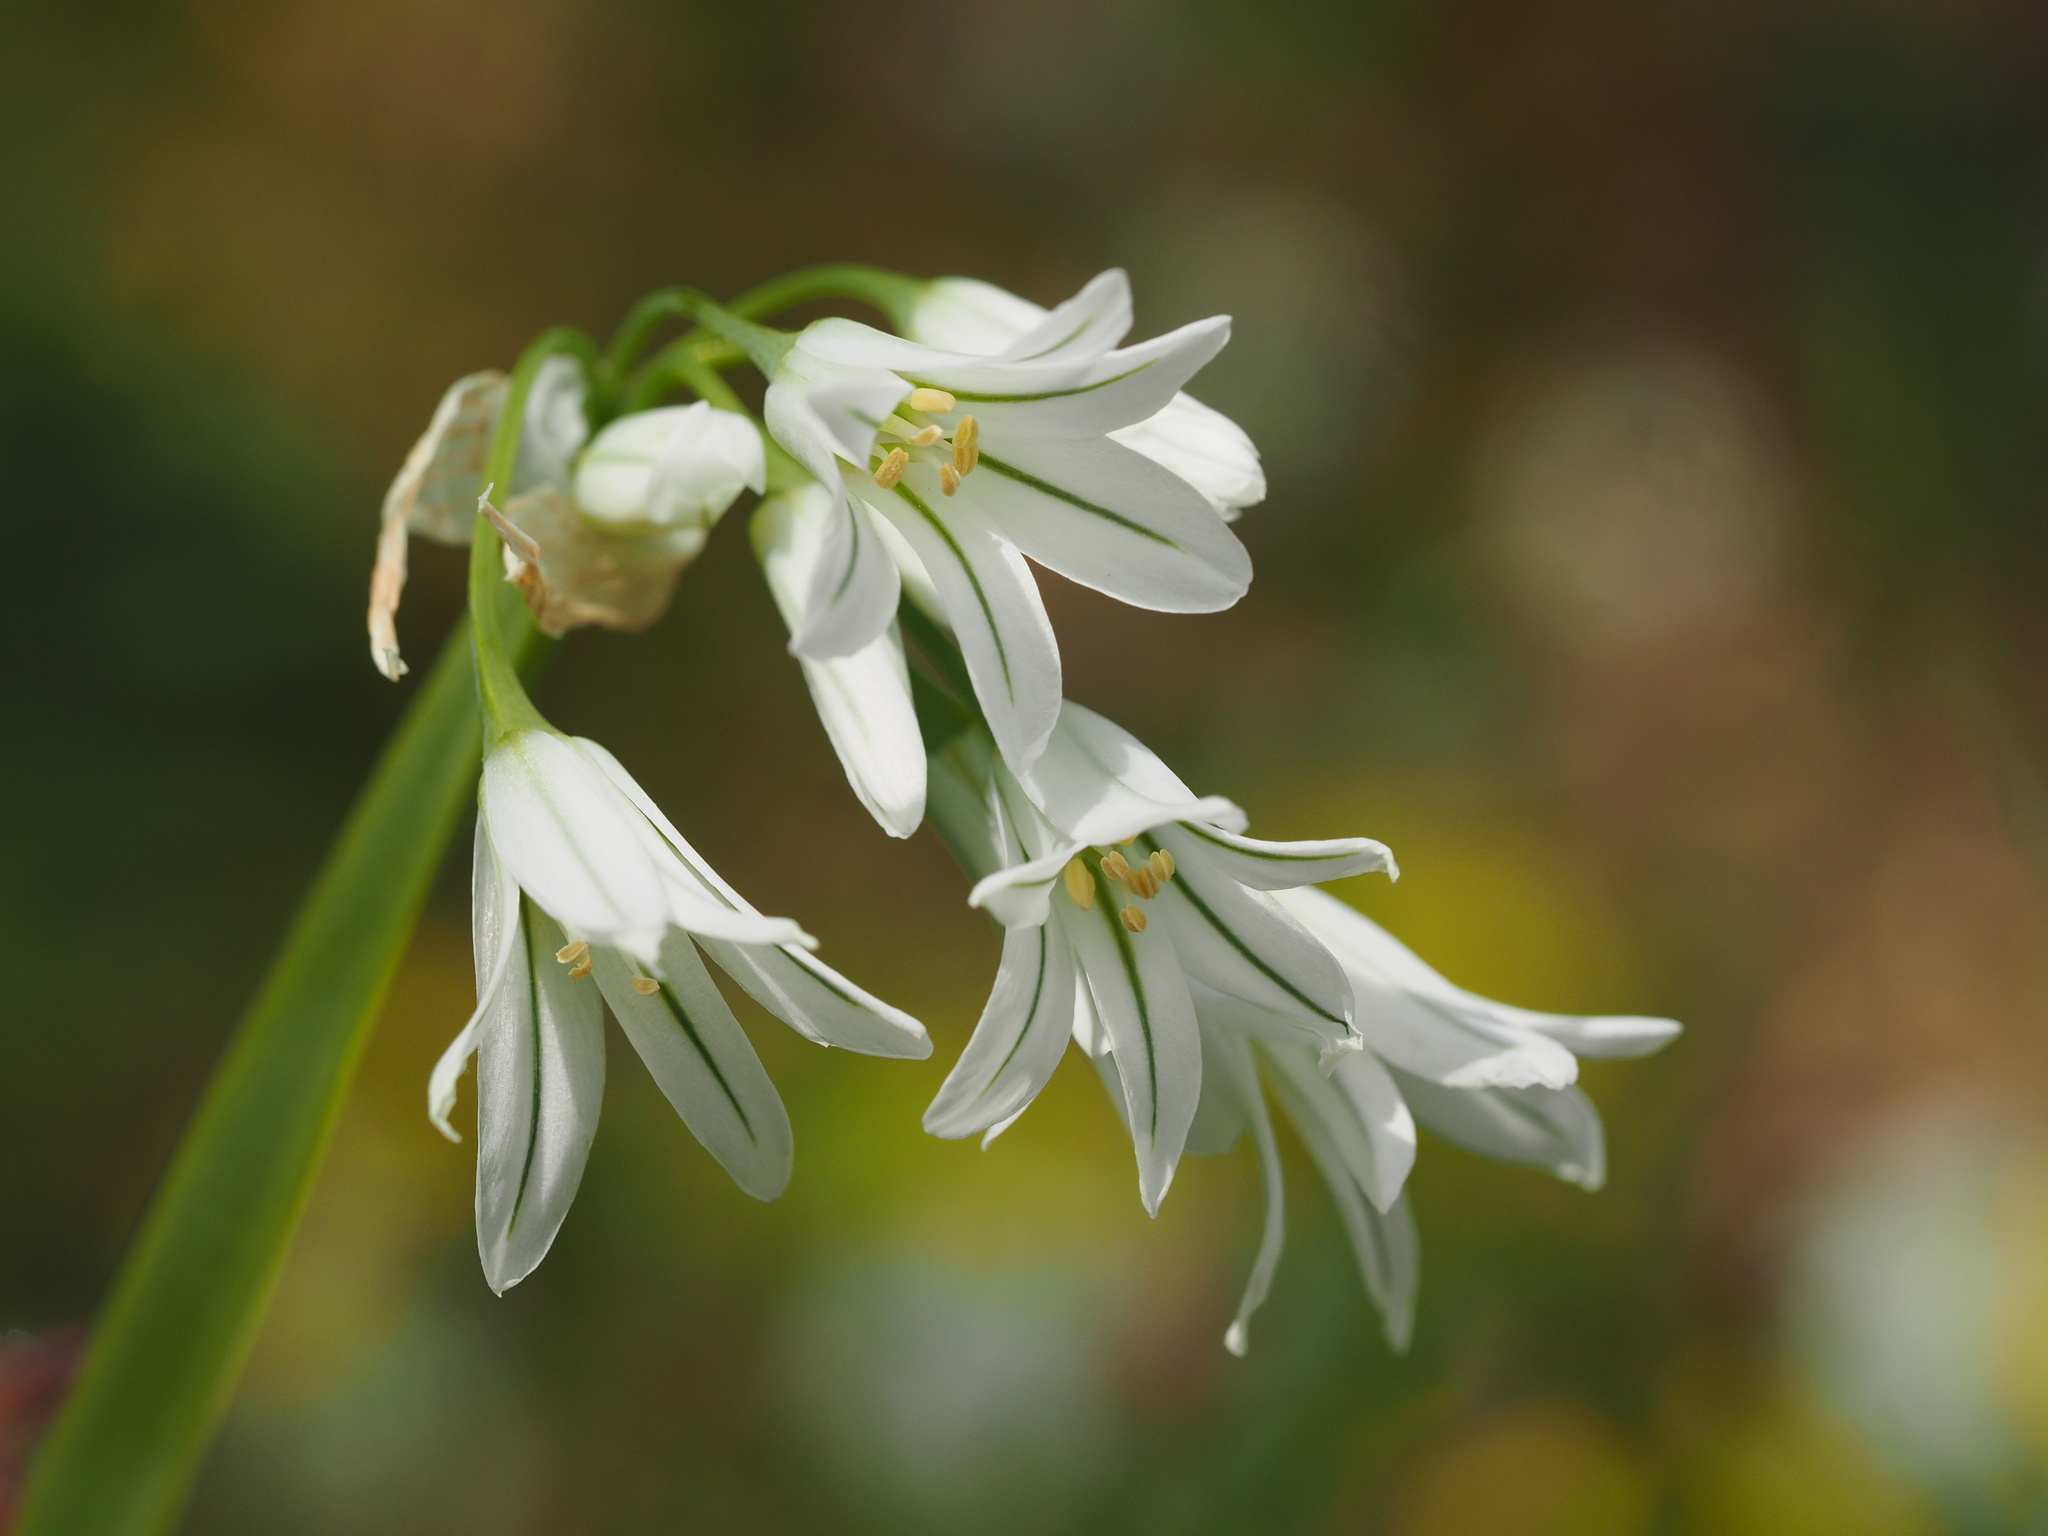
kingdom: Plantae
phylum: Tracheophyta
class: Liliopsida
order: Asparagales
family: Amaryllidaceae
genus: Allium
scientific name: Allium triquetrum
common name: Three-cornered garlic
